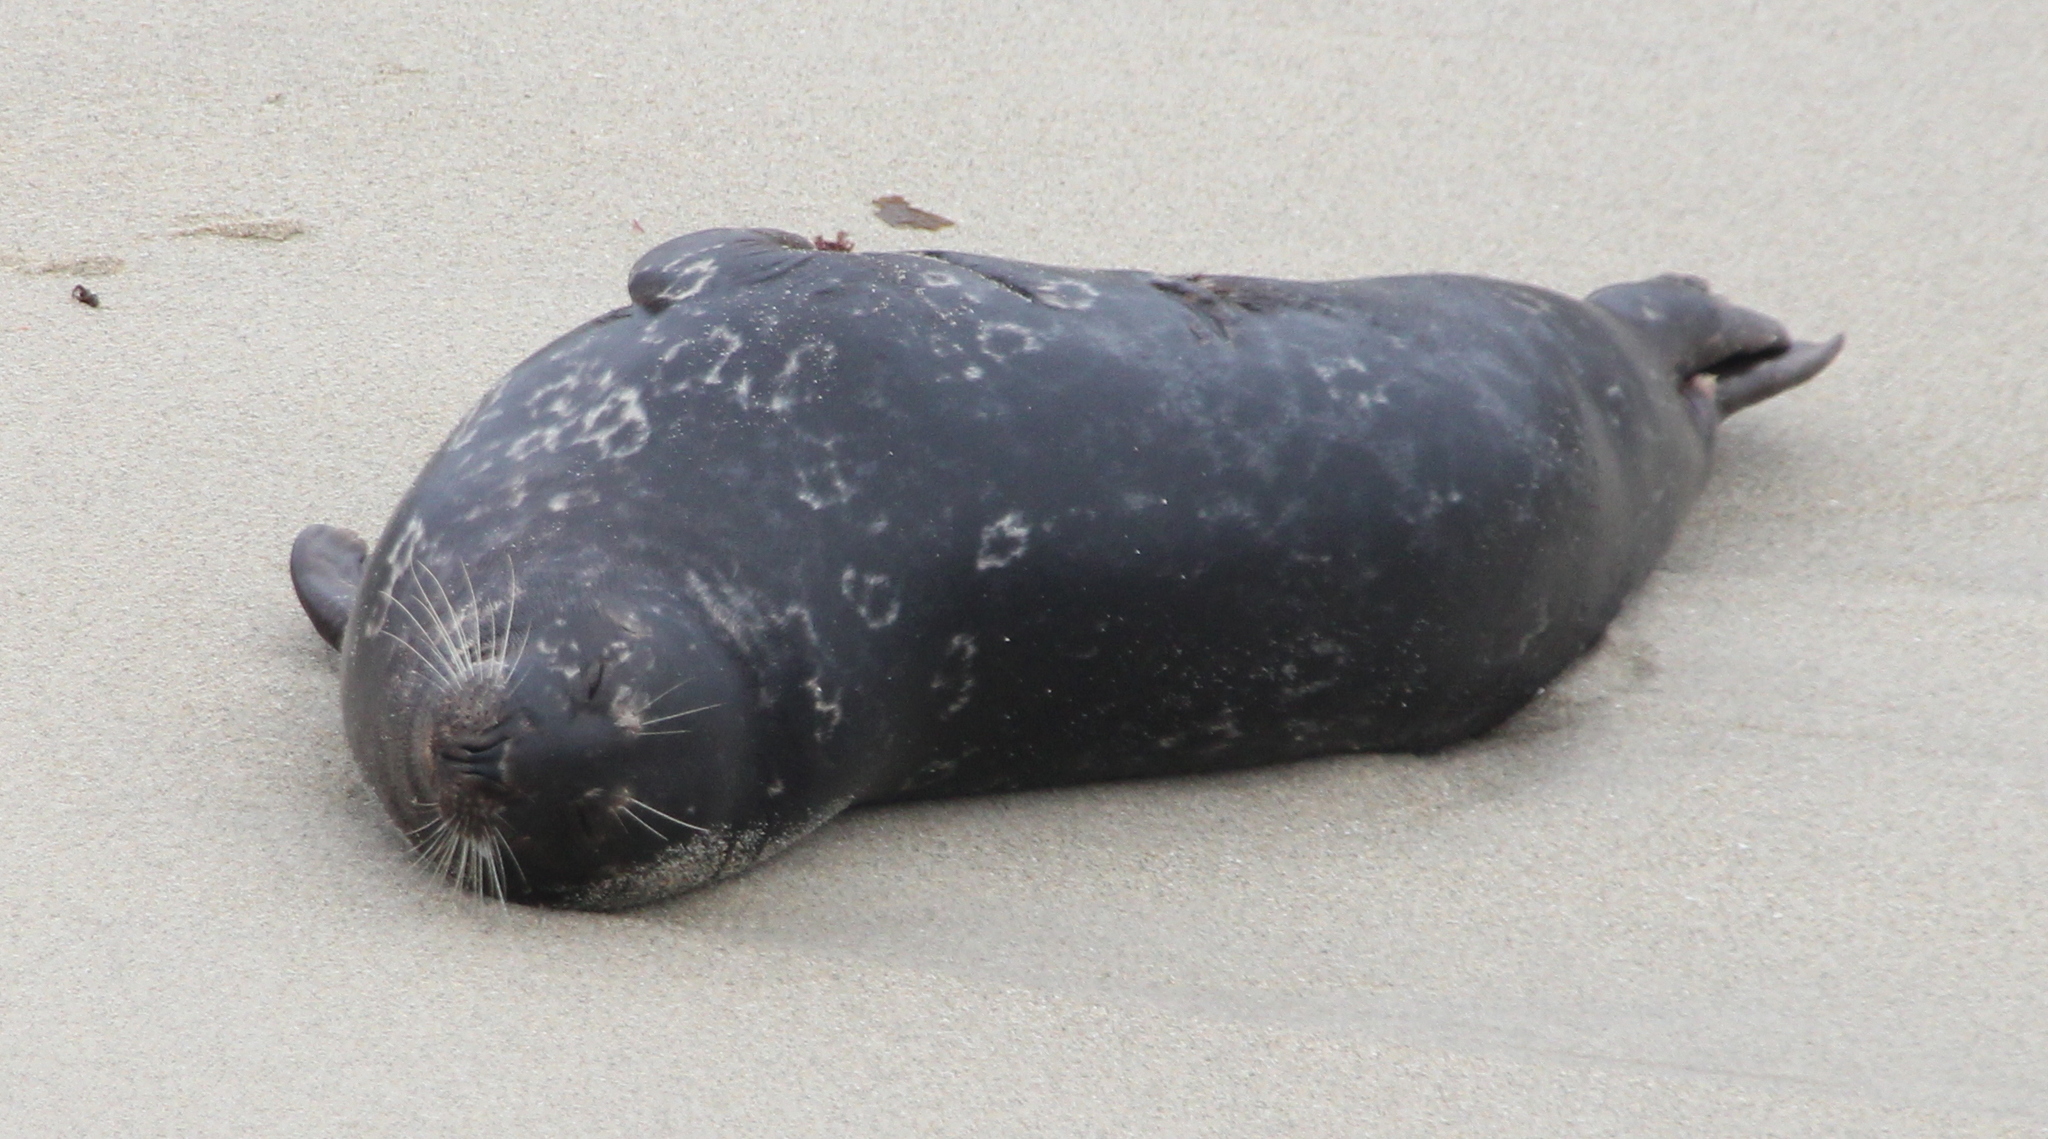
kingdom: Animalia
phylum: Chordata
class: Mammalia
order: Carnivora
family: Phocidae
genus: Phoca
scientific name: Phoca vitulina
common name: Harbor seal
